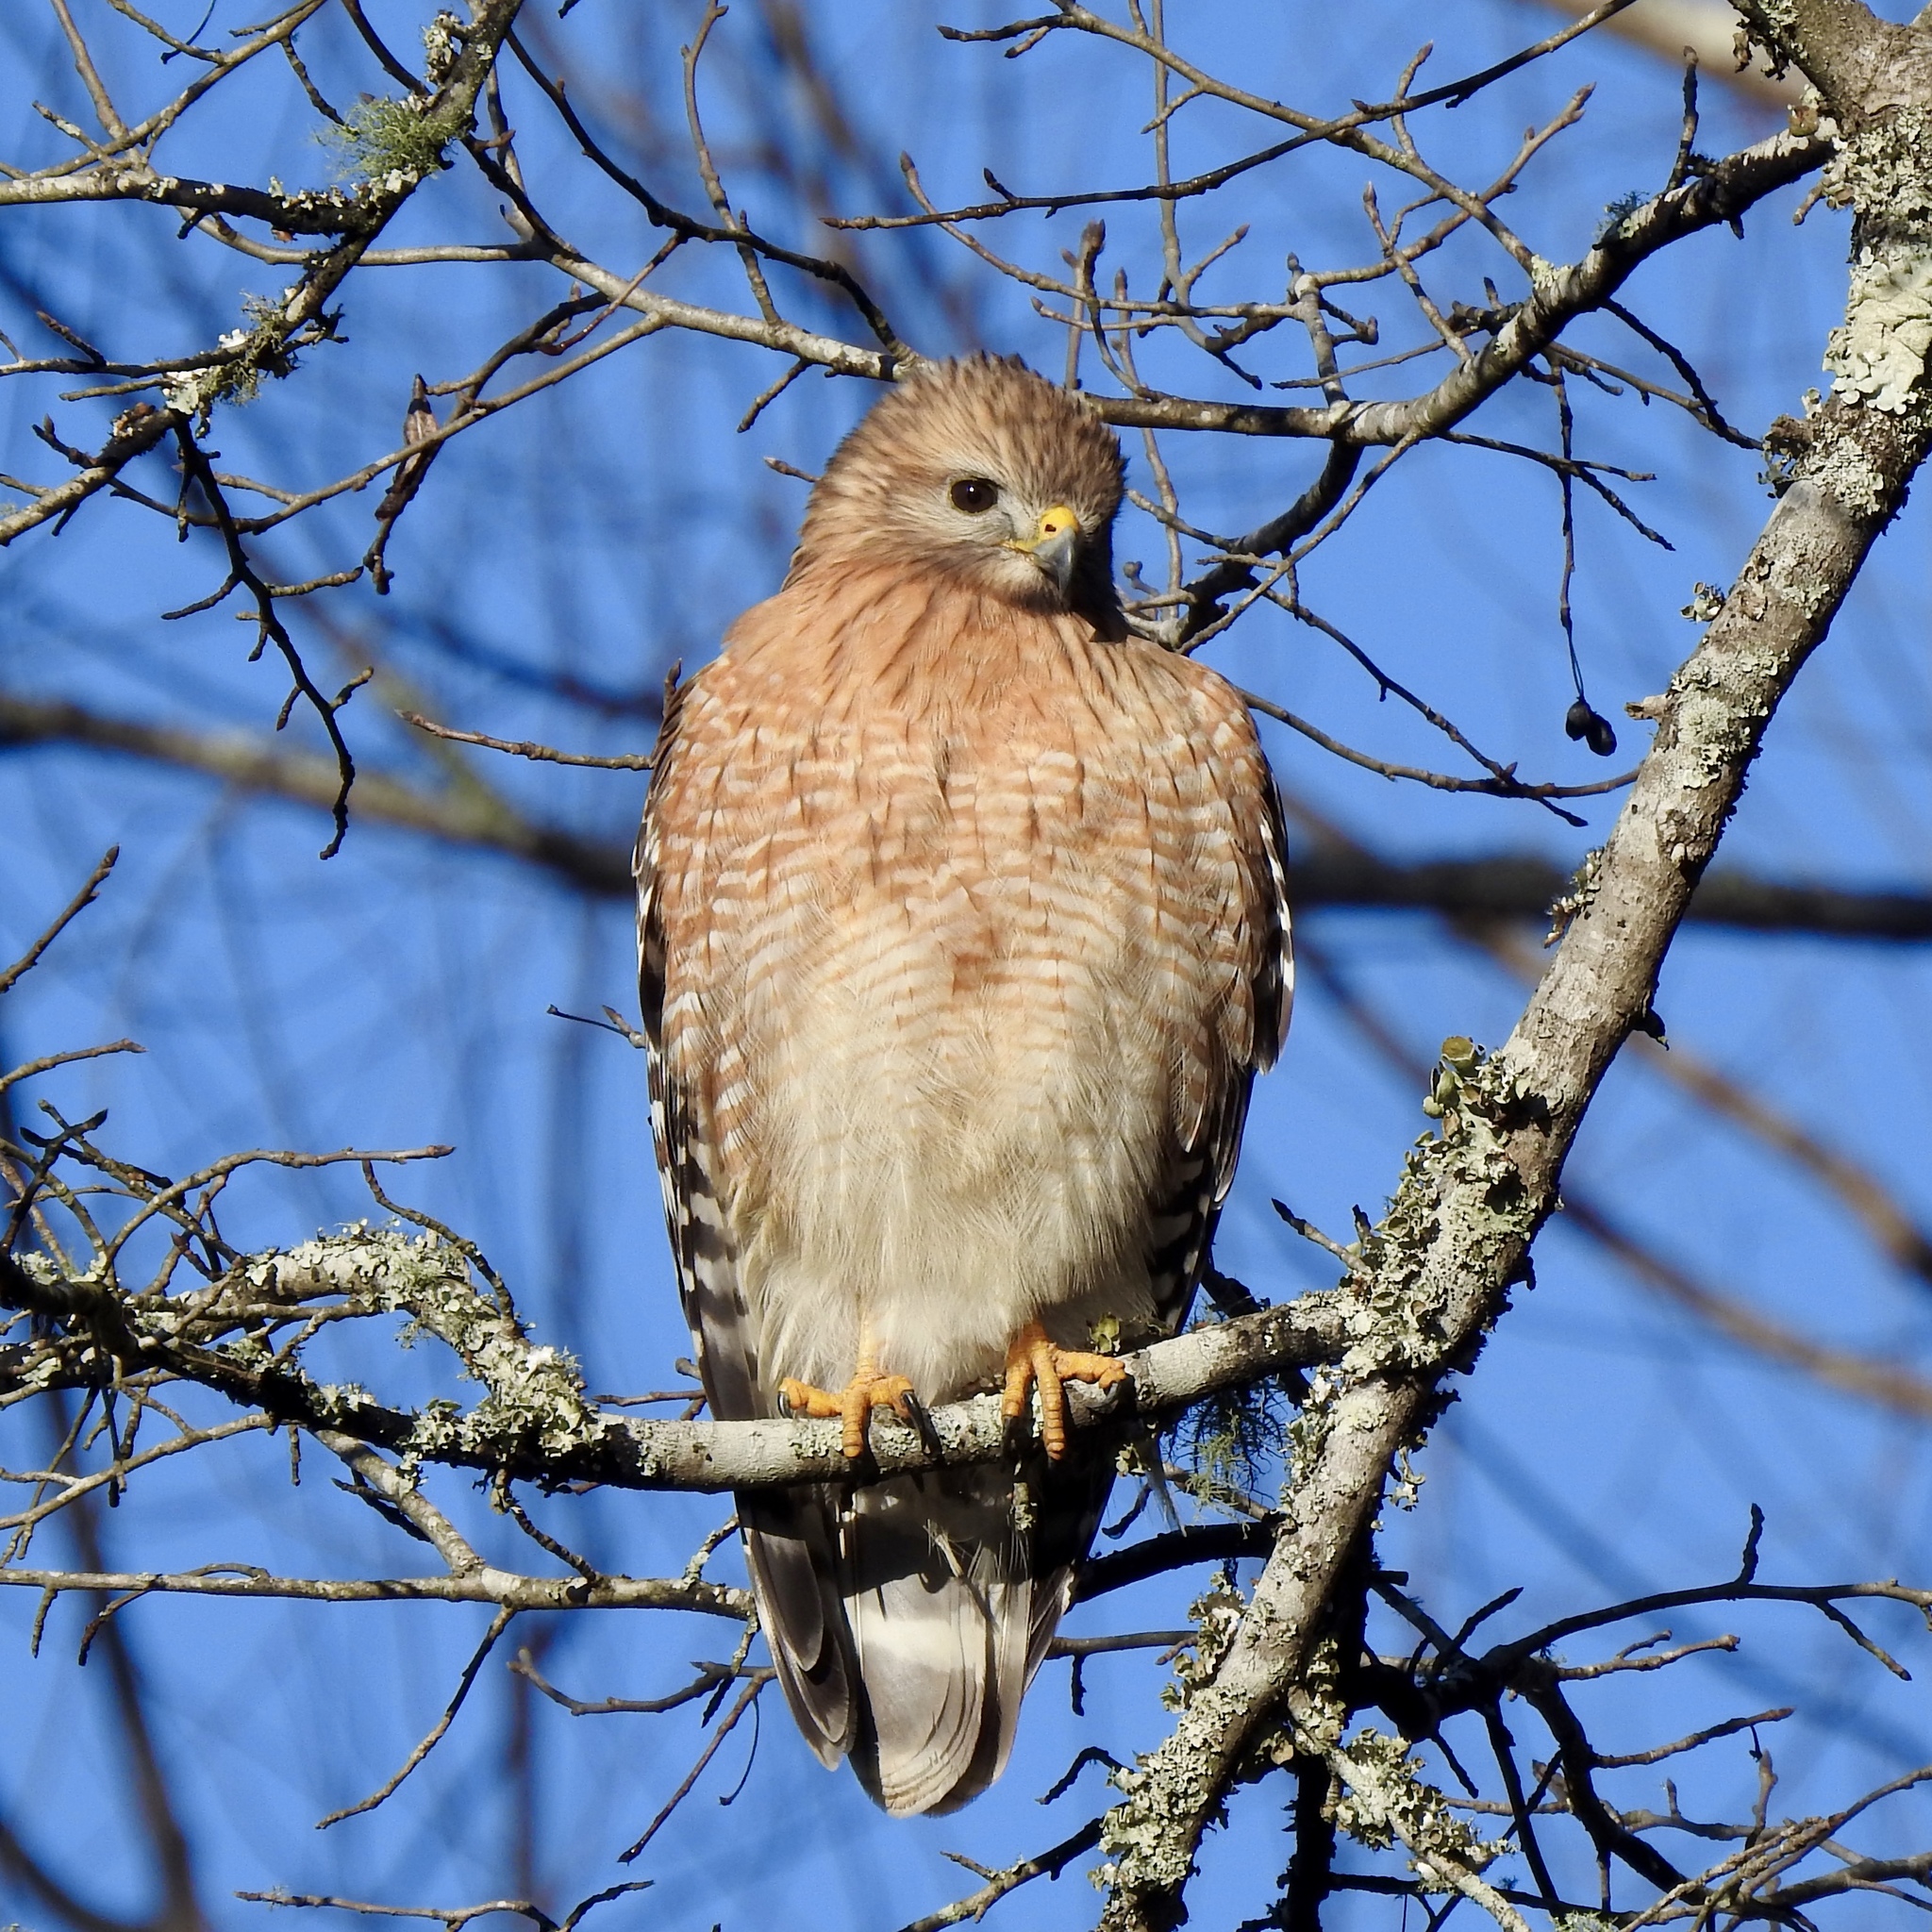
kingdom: Animalia
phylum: Chordata
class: Aves
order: Accipitriformes
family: Accipitridae
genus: Buteo
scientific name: Buteo lineatus
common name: Red-shouldered hawk
